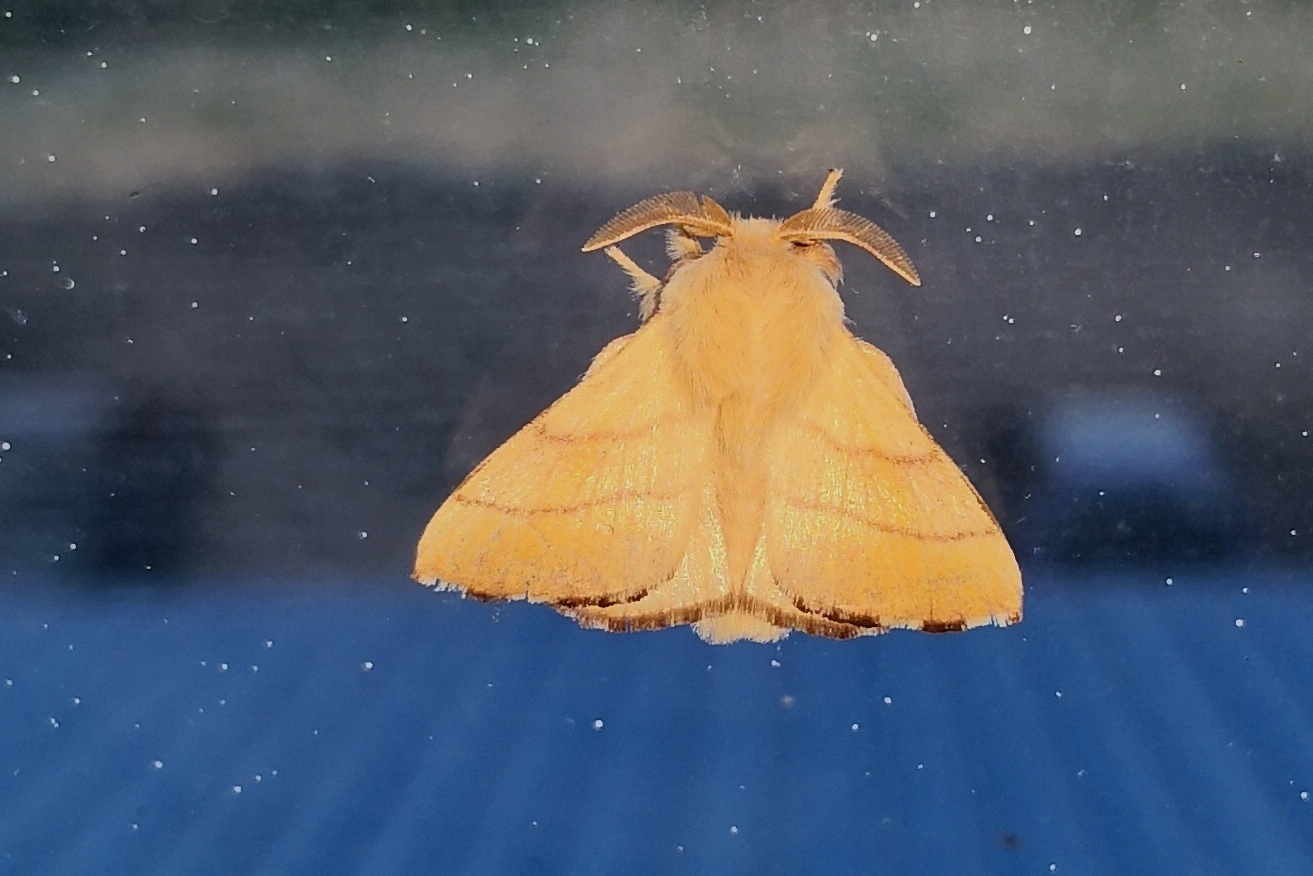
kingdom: Animalia
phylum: Arthropoda
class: Insecta
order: Lepidoptera
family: Lasiocampidae
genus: Malacosoma
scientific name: Malacosoma neustria
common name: The lackey
